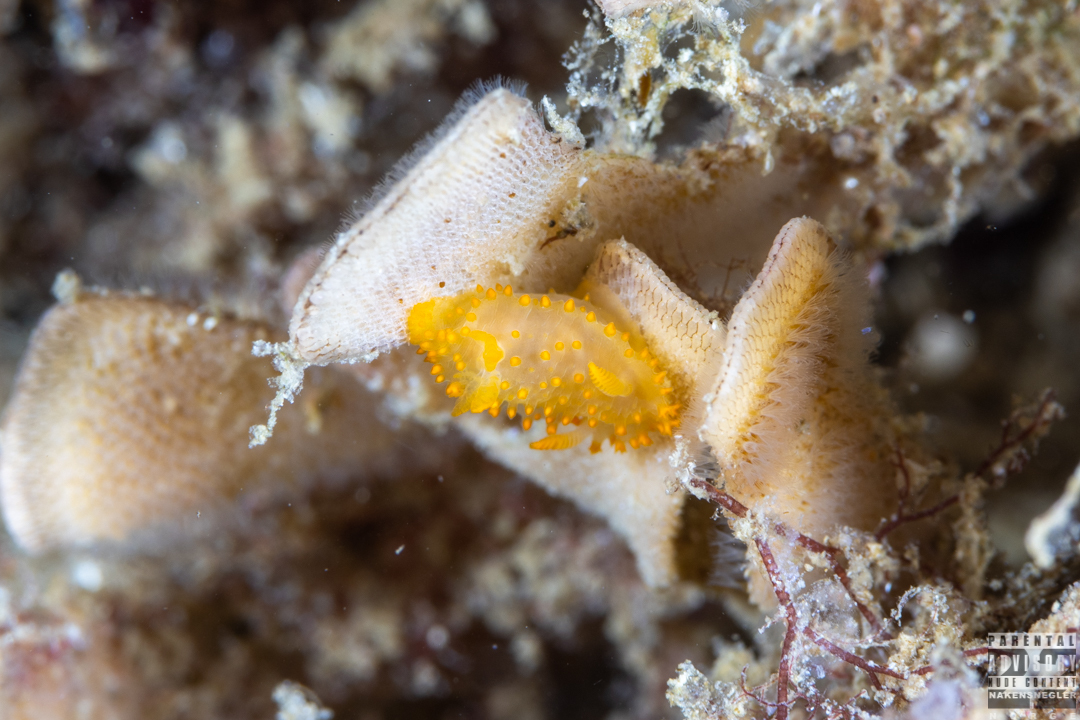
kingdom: Animalia
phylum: Mollusca
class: Gastropoda
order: Nudibranchia
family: Polyceridae
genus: Crimora
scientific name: Crimora papillata
